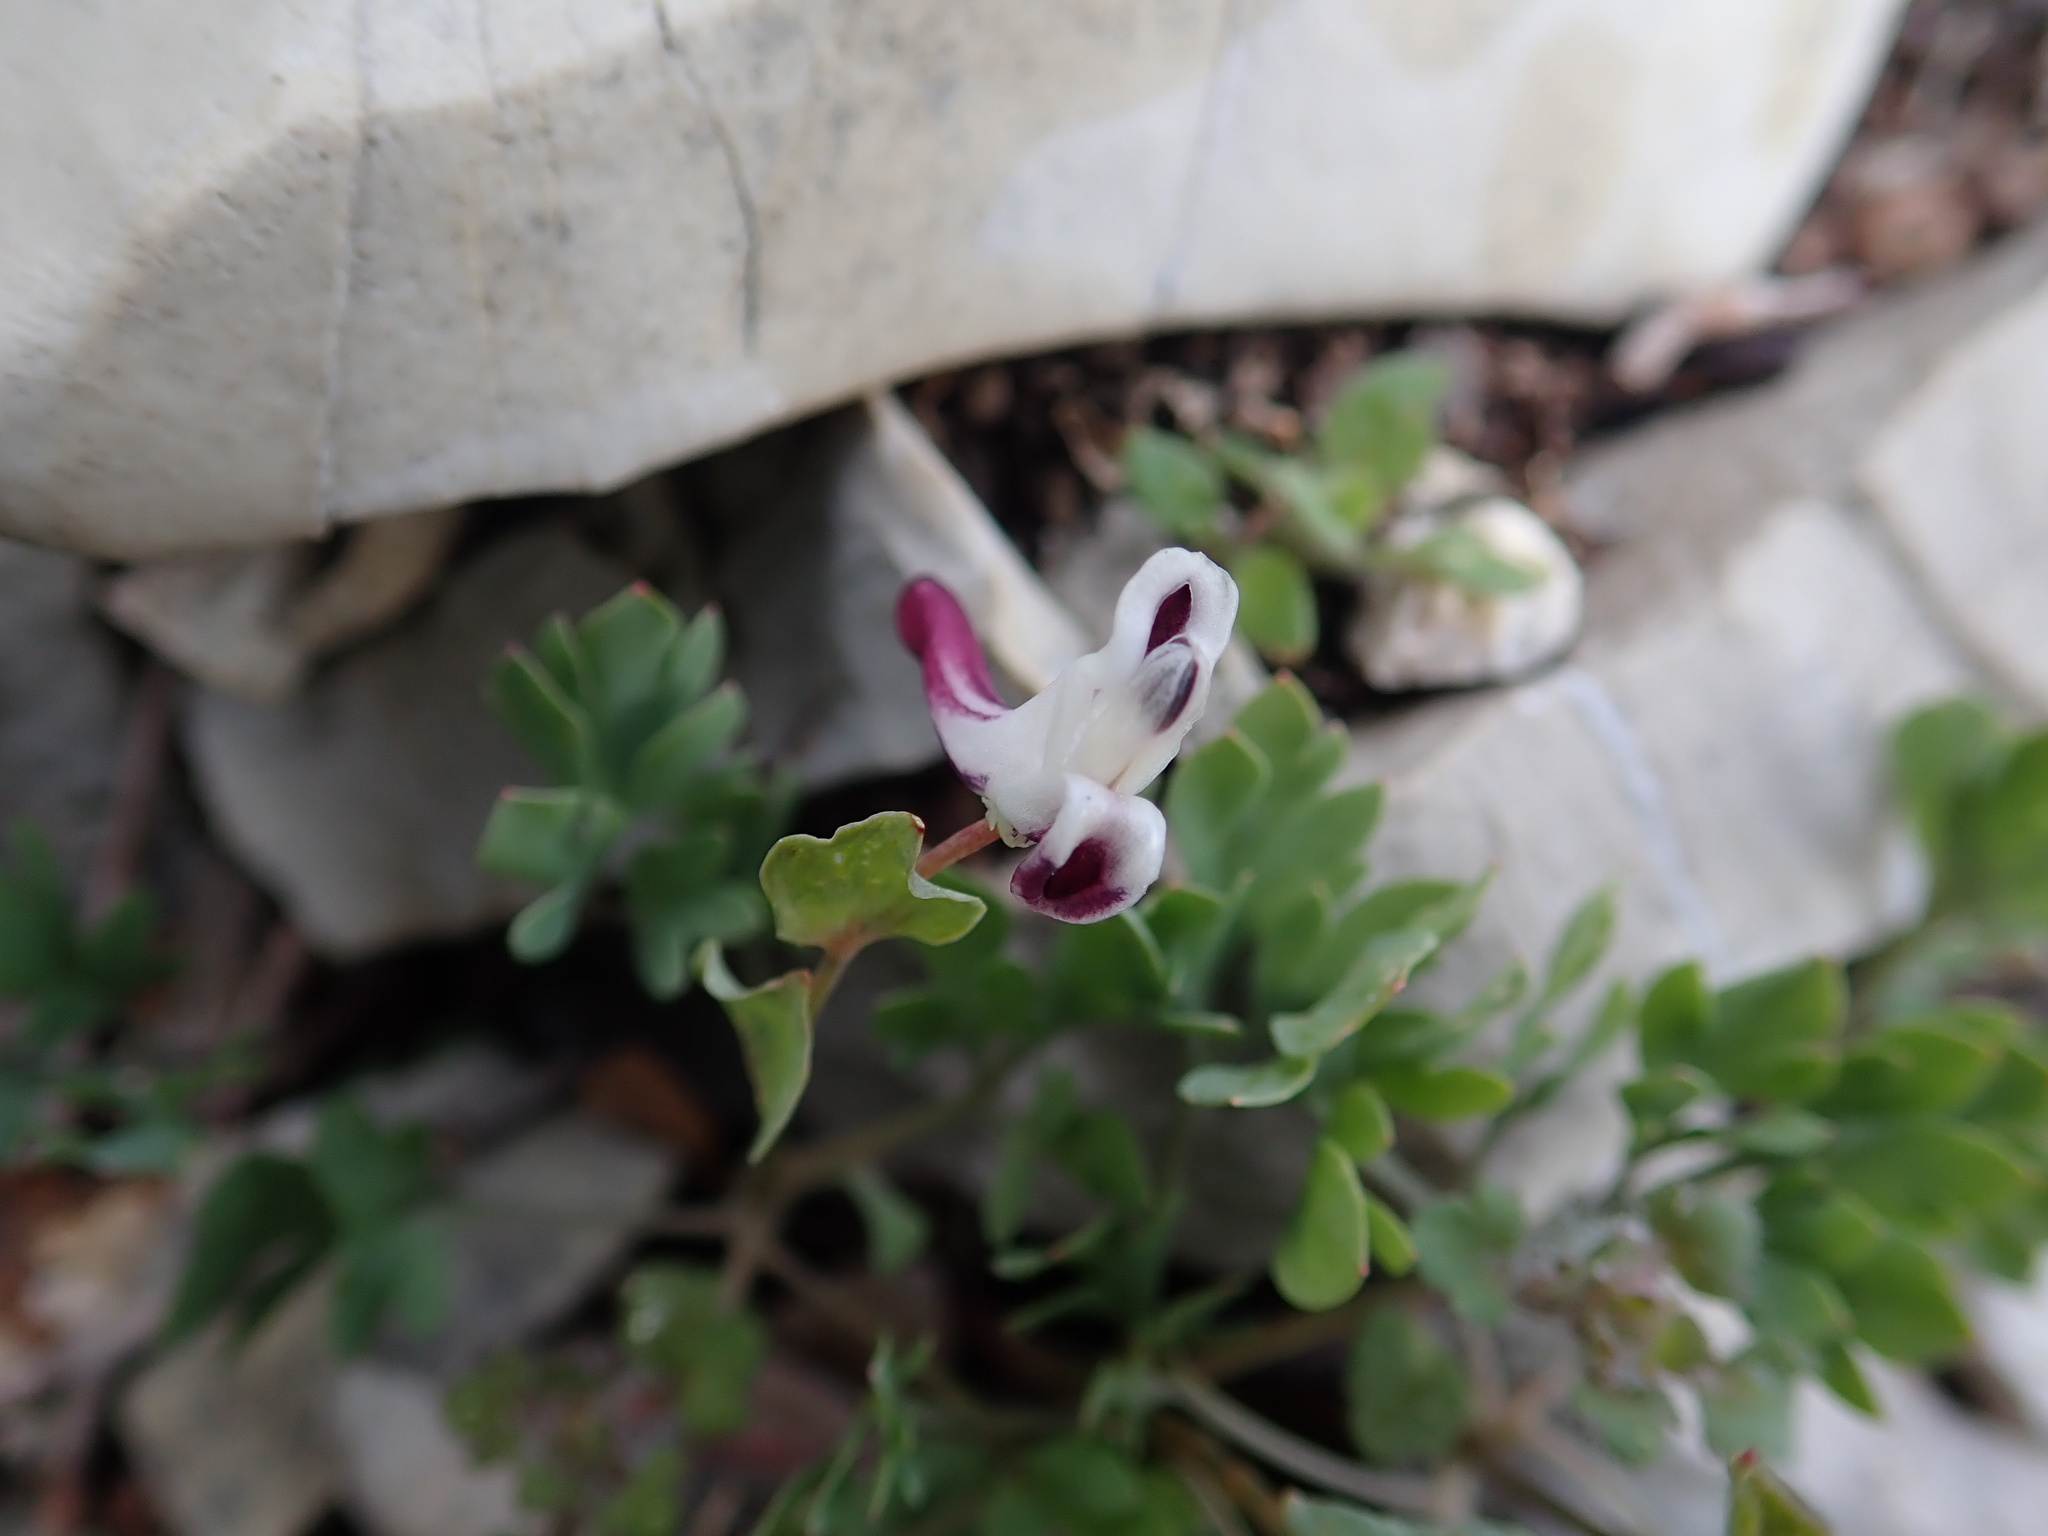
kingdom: Plantae
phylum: Tracheophyta
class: Magnoliopsida
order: Ranunculales
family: Papaveraceae
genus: Corydalis
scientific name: Corydalis erdelii
